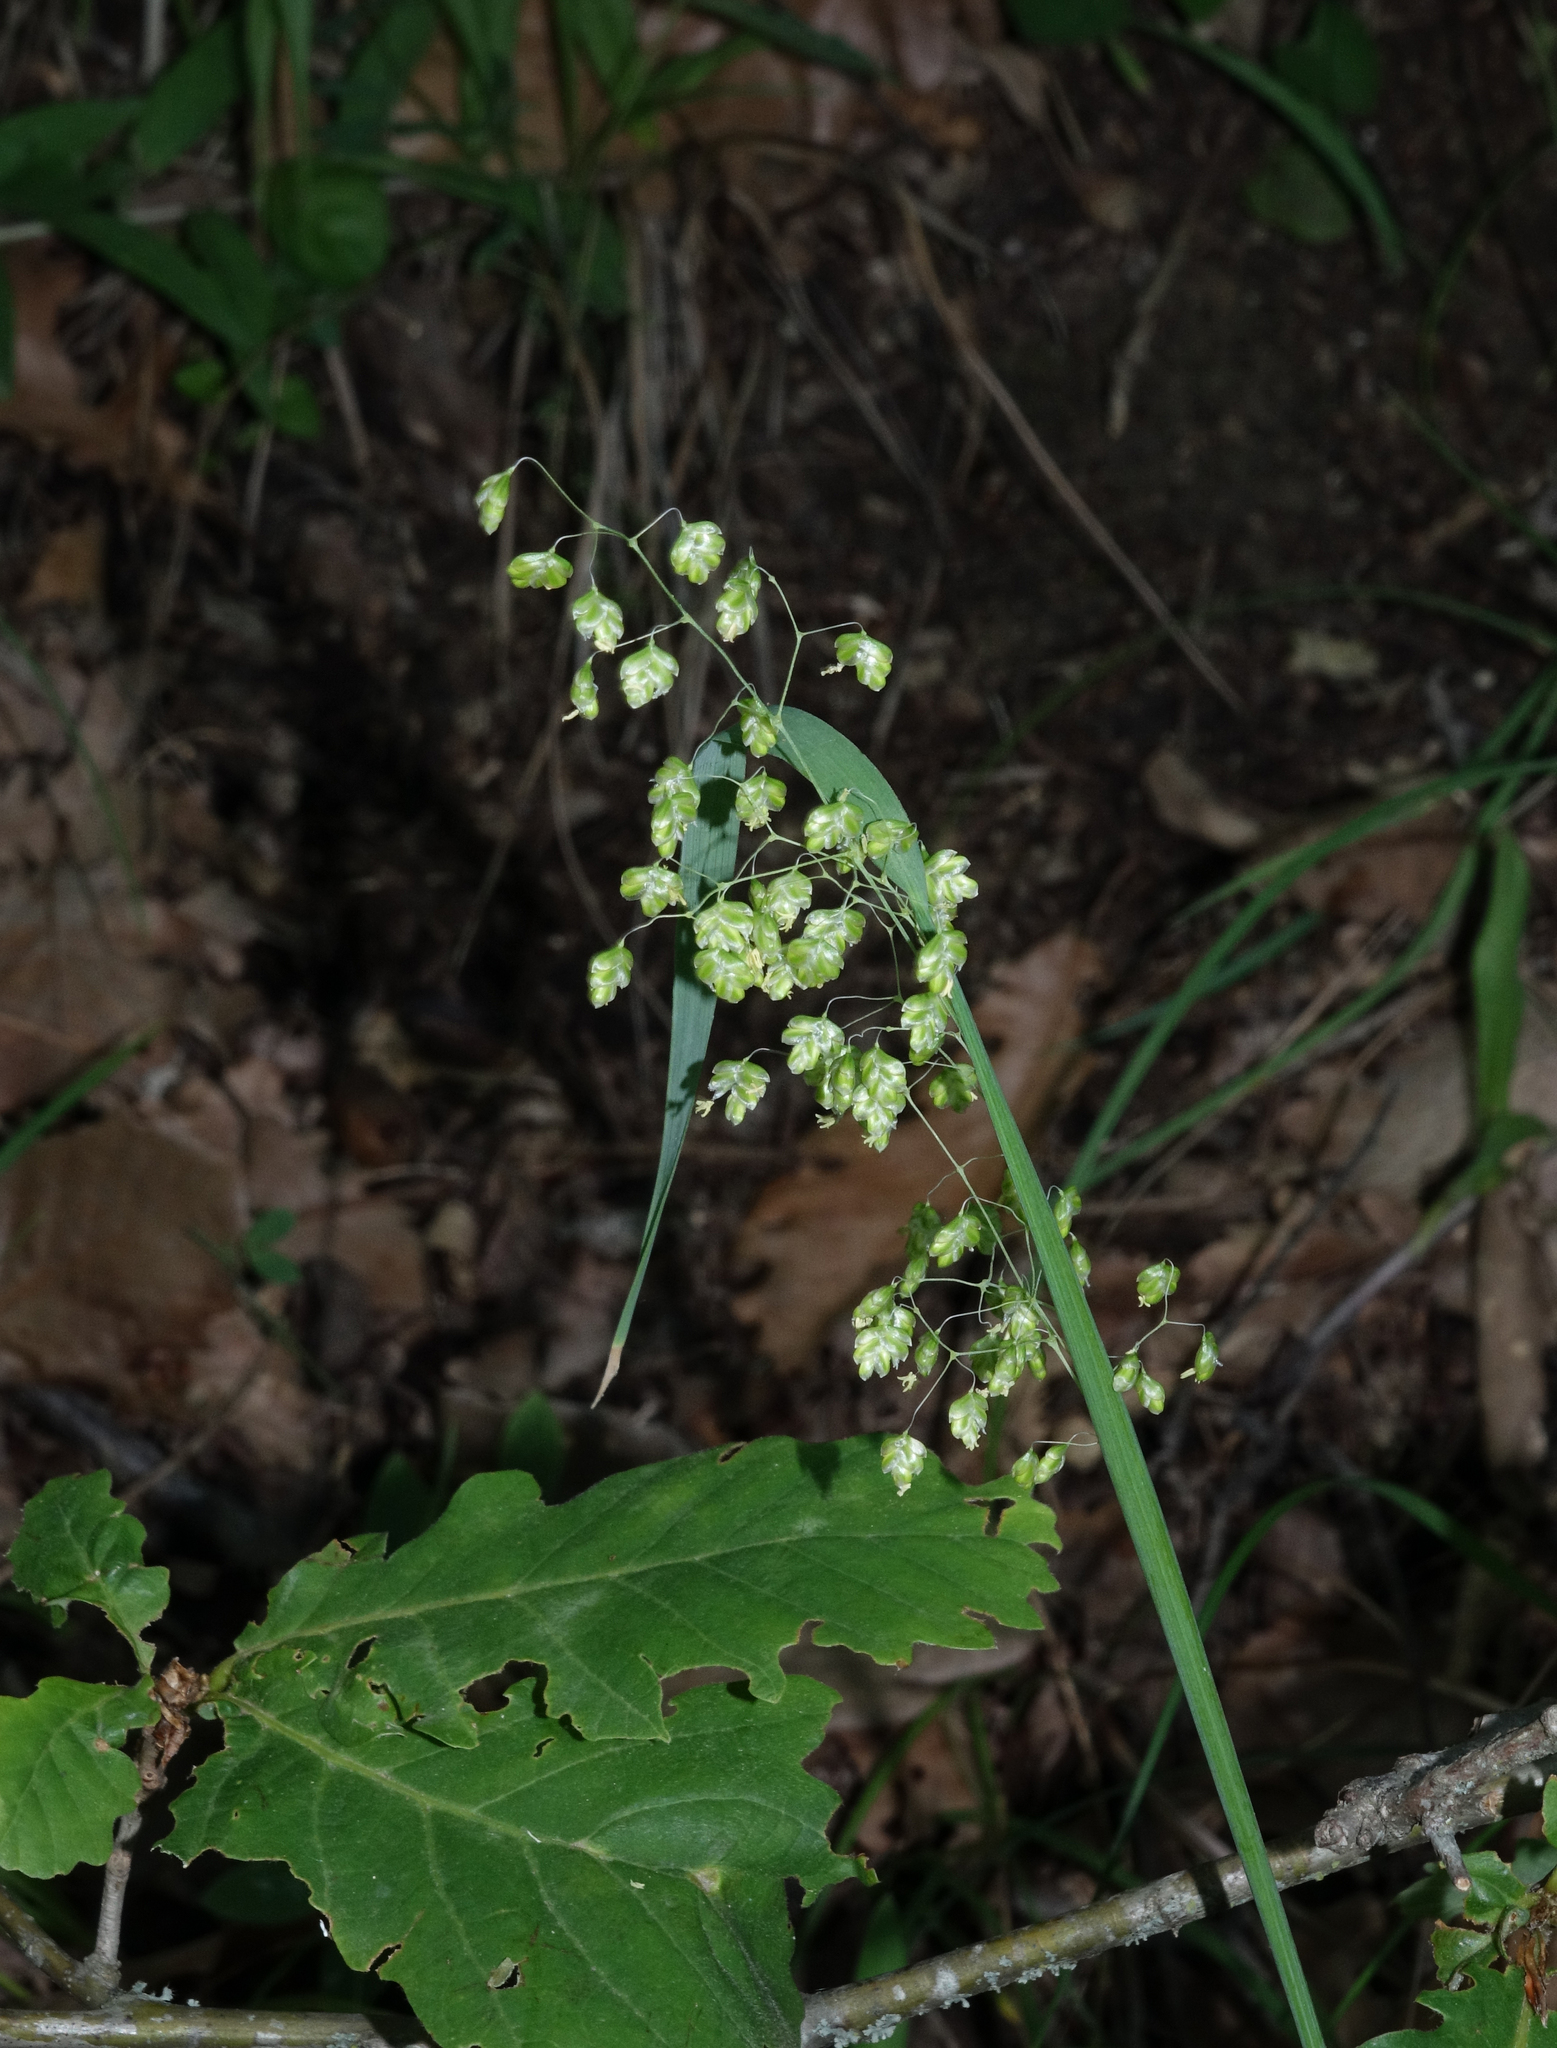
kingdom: Plantae
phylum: Tracheophyta
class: Liliopsida
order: Poales
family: Poaceae
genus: Briza
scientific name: Briza media
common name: Quaking grass
